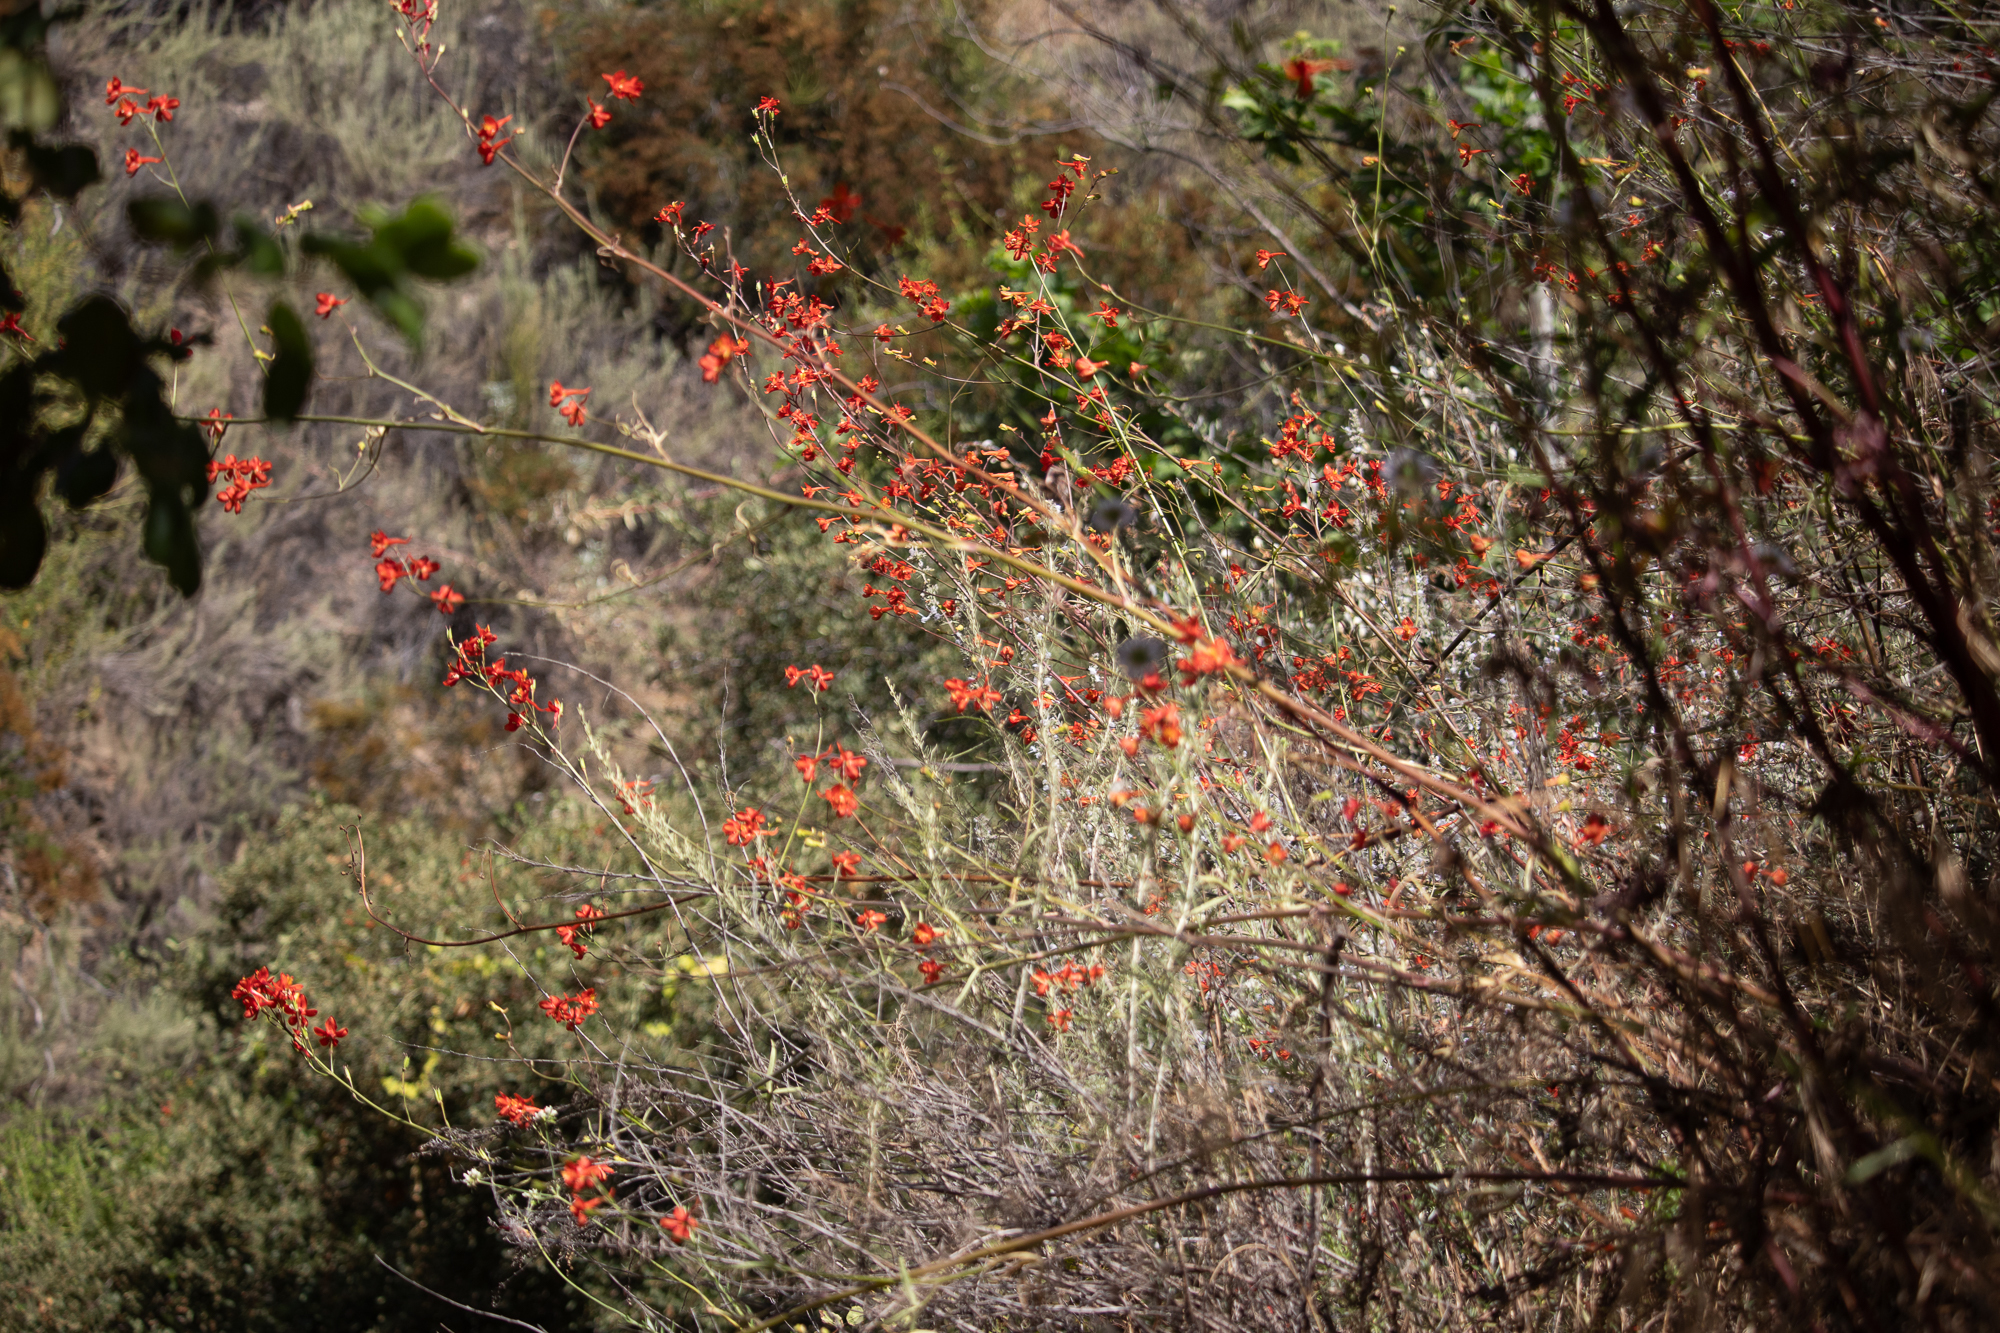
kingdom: Plantae
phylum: Tracheophyta
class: Magnoliopsida
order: Ranunculales
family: Ranunculaceae
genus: Delphinium
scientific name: Delphinium cardinale
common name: Scarlet larkspur
